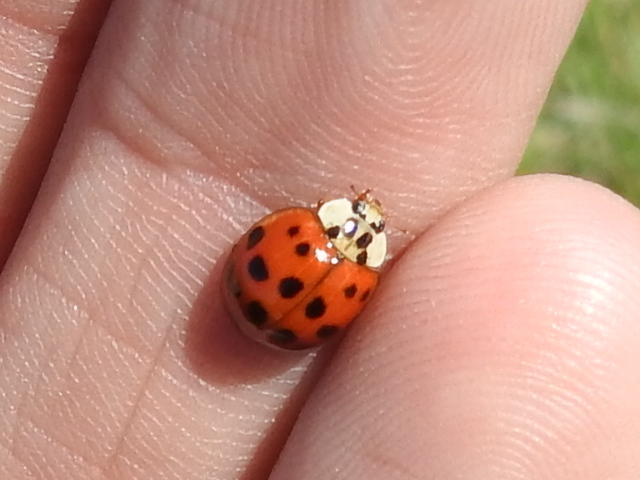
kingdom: Animalia
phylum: Arthropoda
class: Insecta
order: Coleoptera
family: Coccinellidae
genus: Harmonia
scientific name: Harmonia axyridis
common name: Harlequin ladybird
